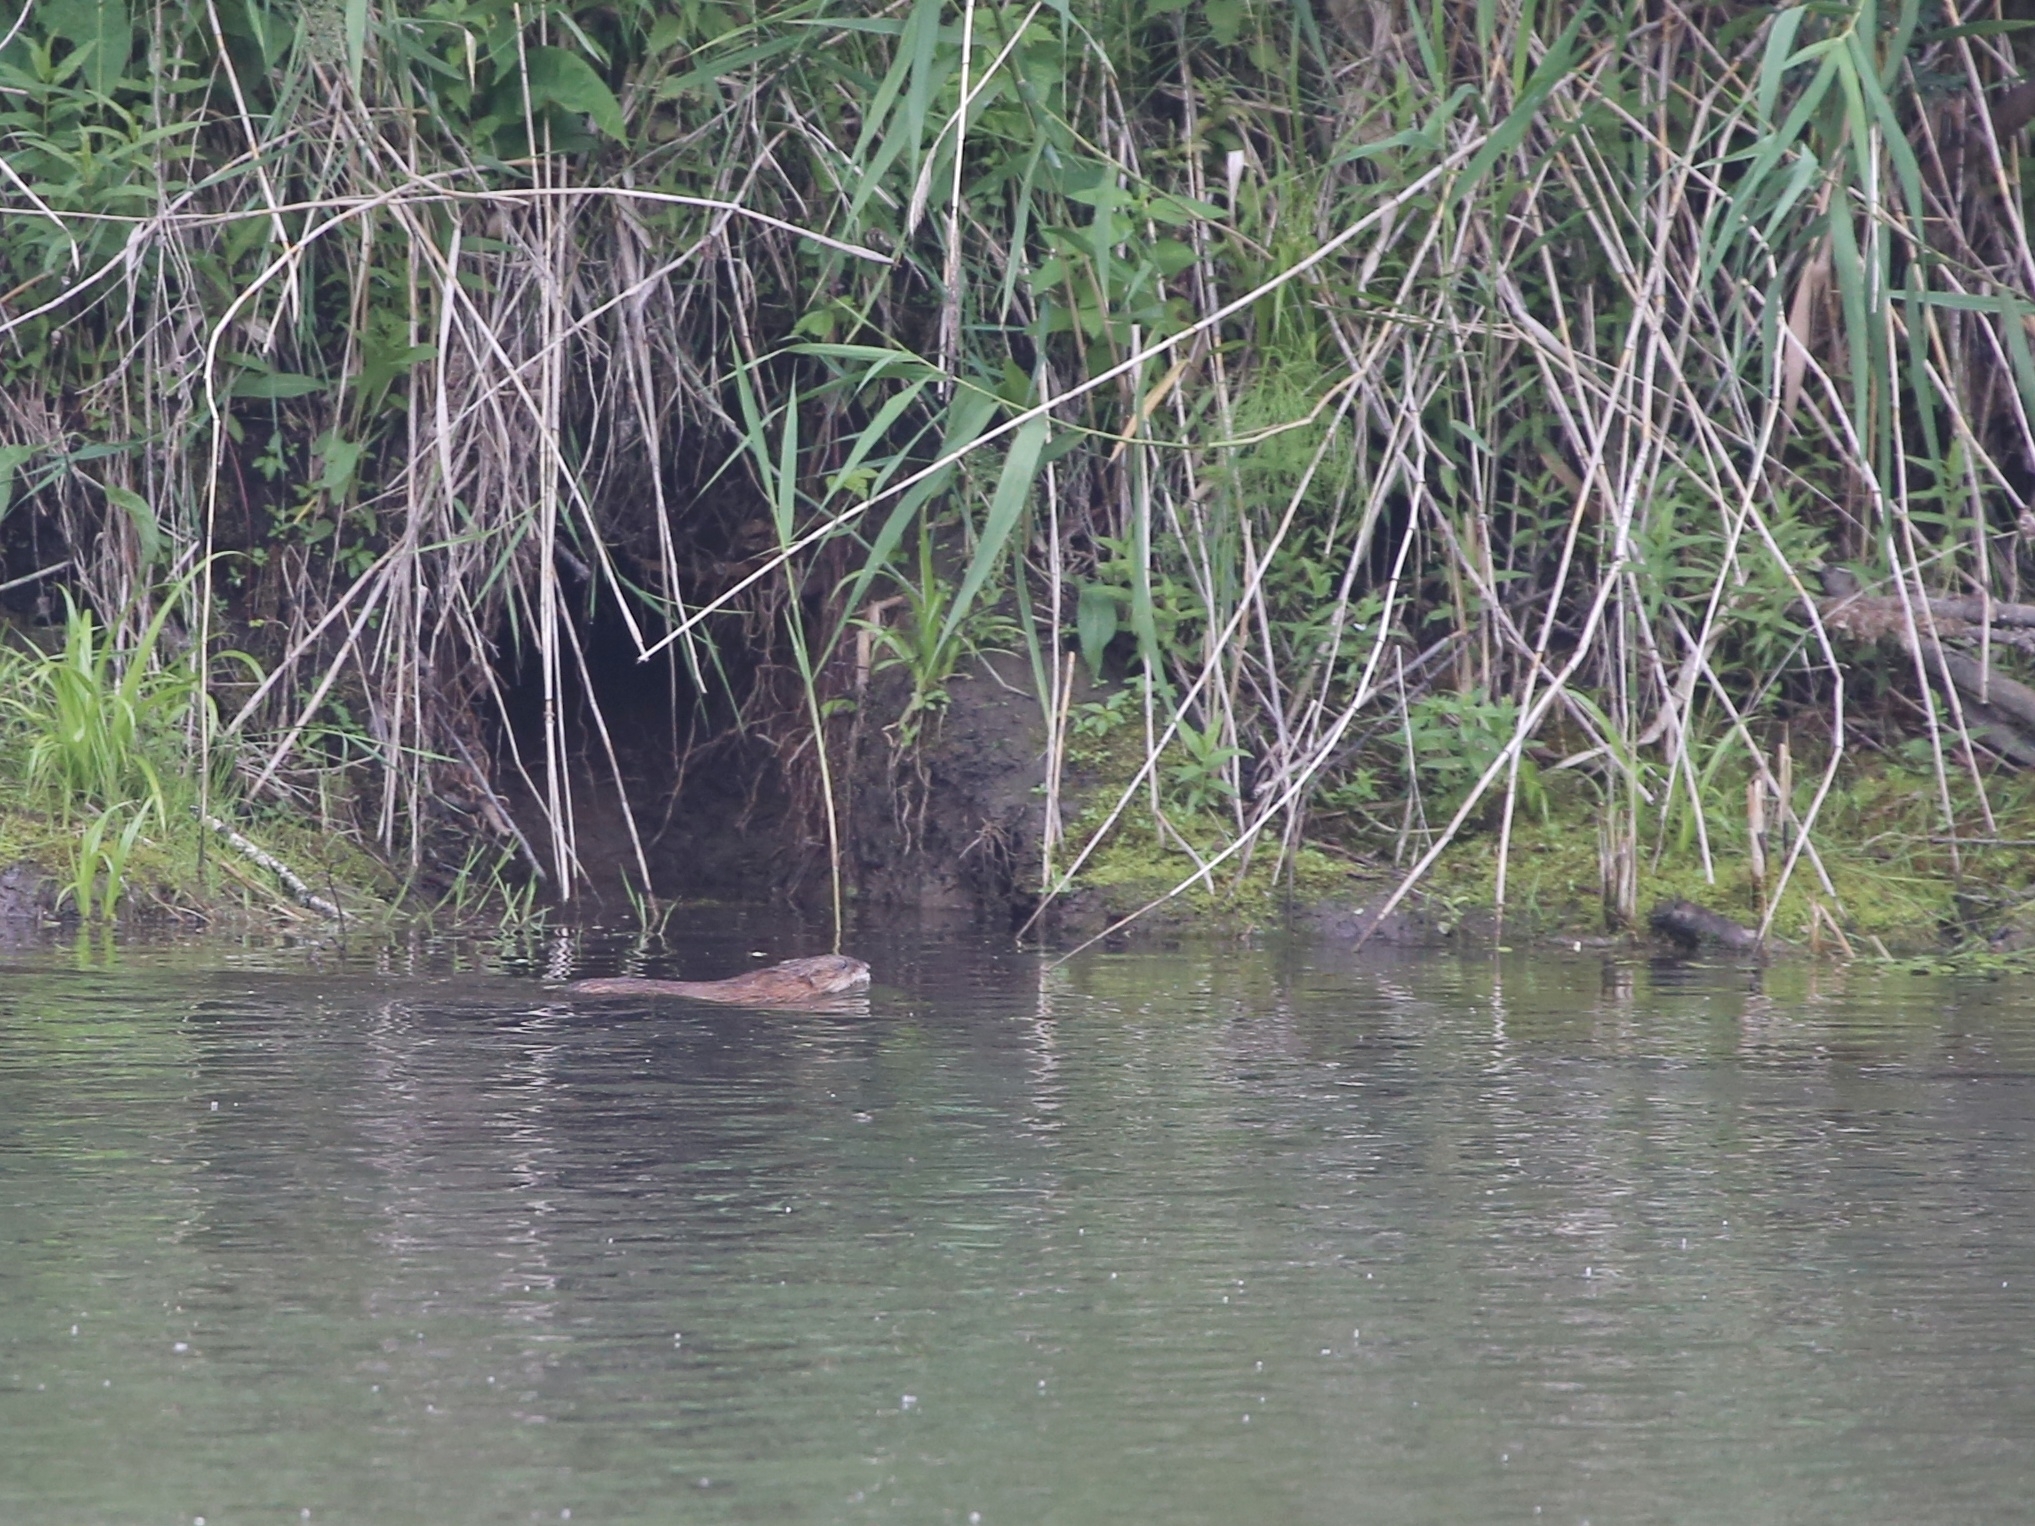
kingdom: Animalia
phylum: Chordata
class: Mammalia
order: Rodentia
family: Cricetidae
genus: Ondatra
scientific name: Ondatra zibethicus
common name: Muskrat
